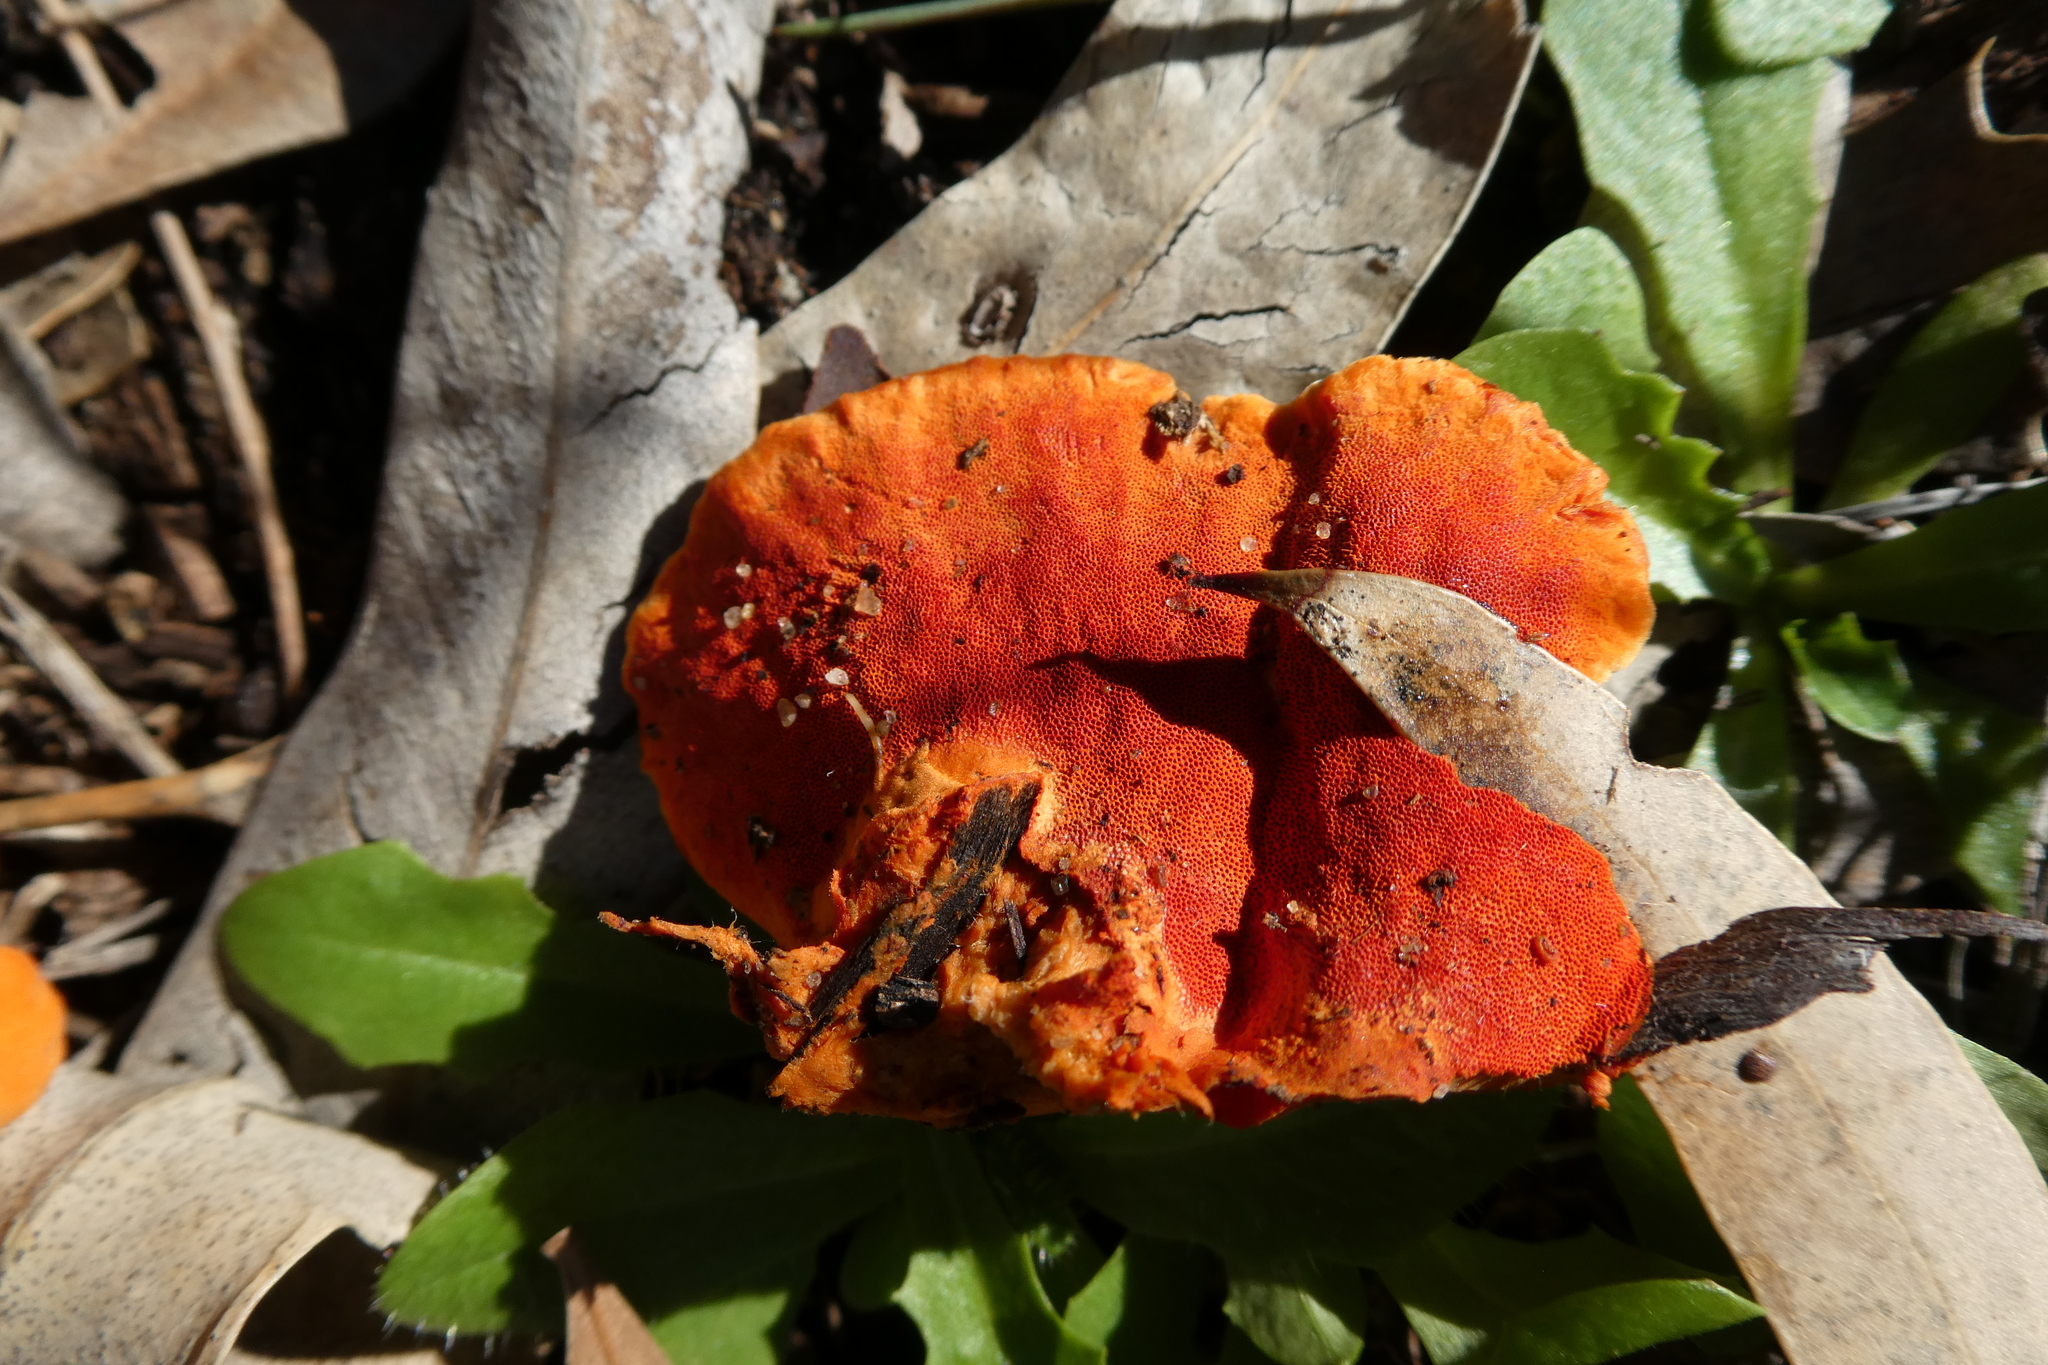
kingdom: Fungi
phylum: Basidiomycota
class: Agaricomycetes
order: Polyporales
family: Polyporaceae
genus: Trametes
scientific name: Trametes coccinea
